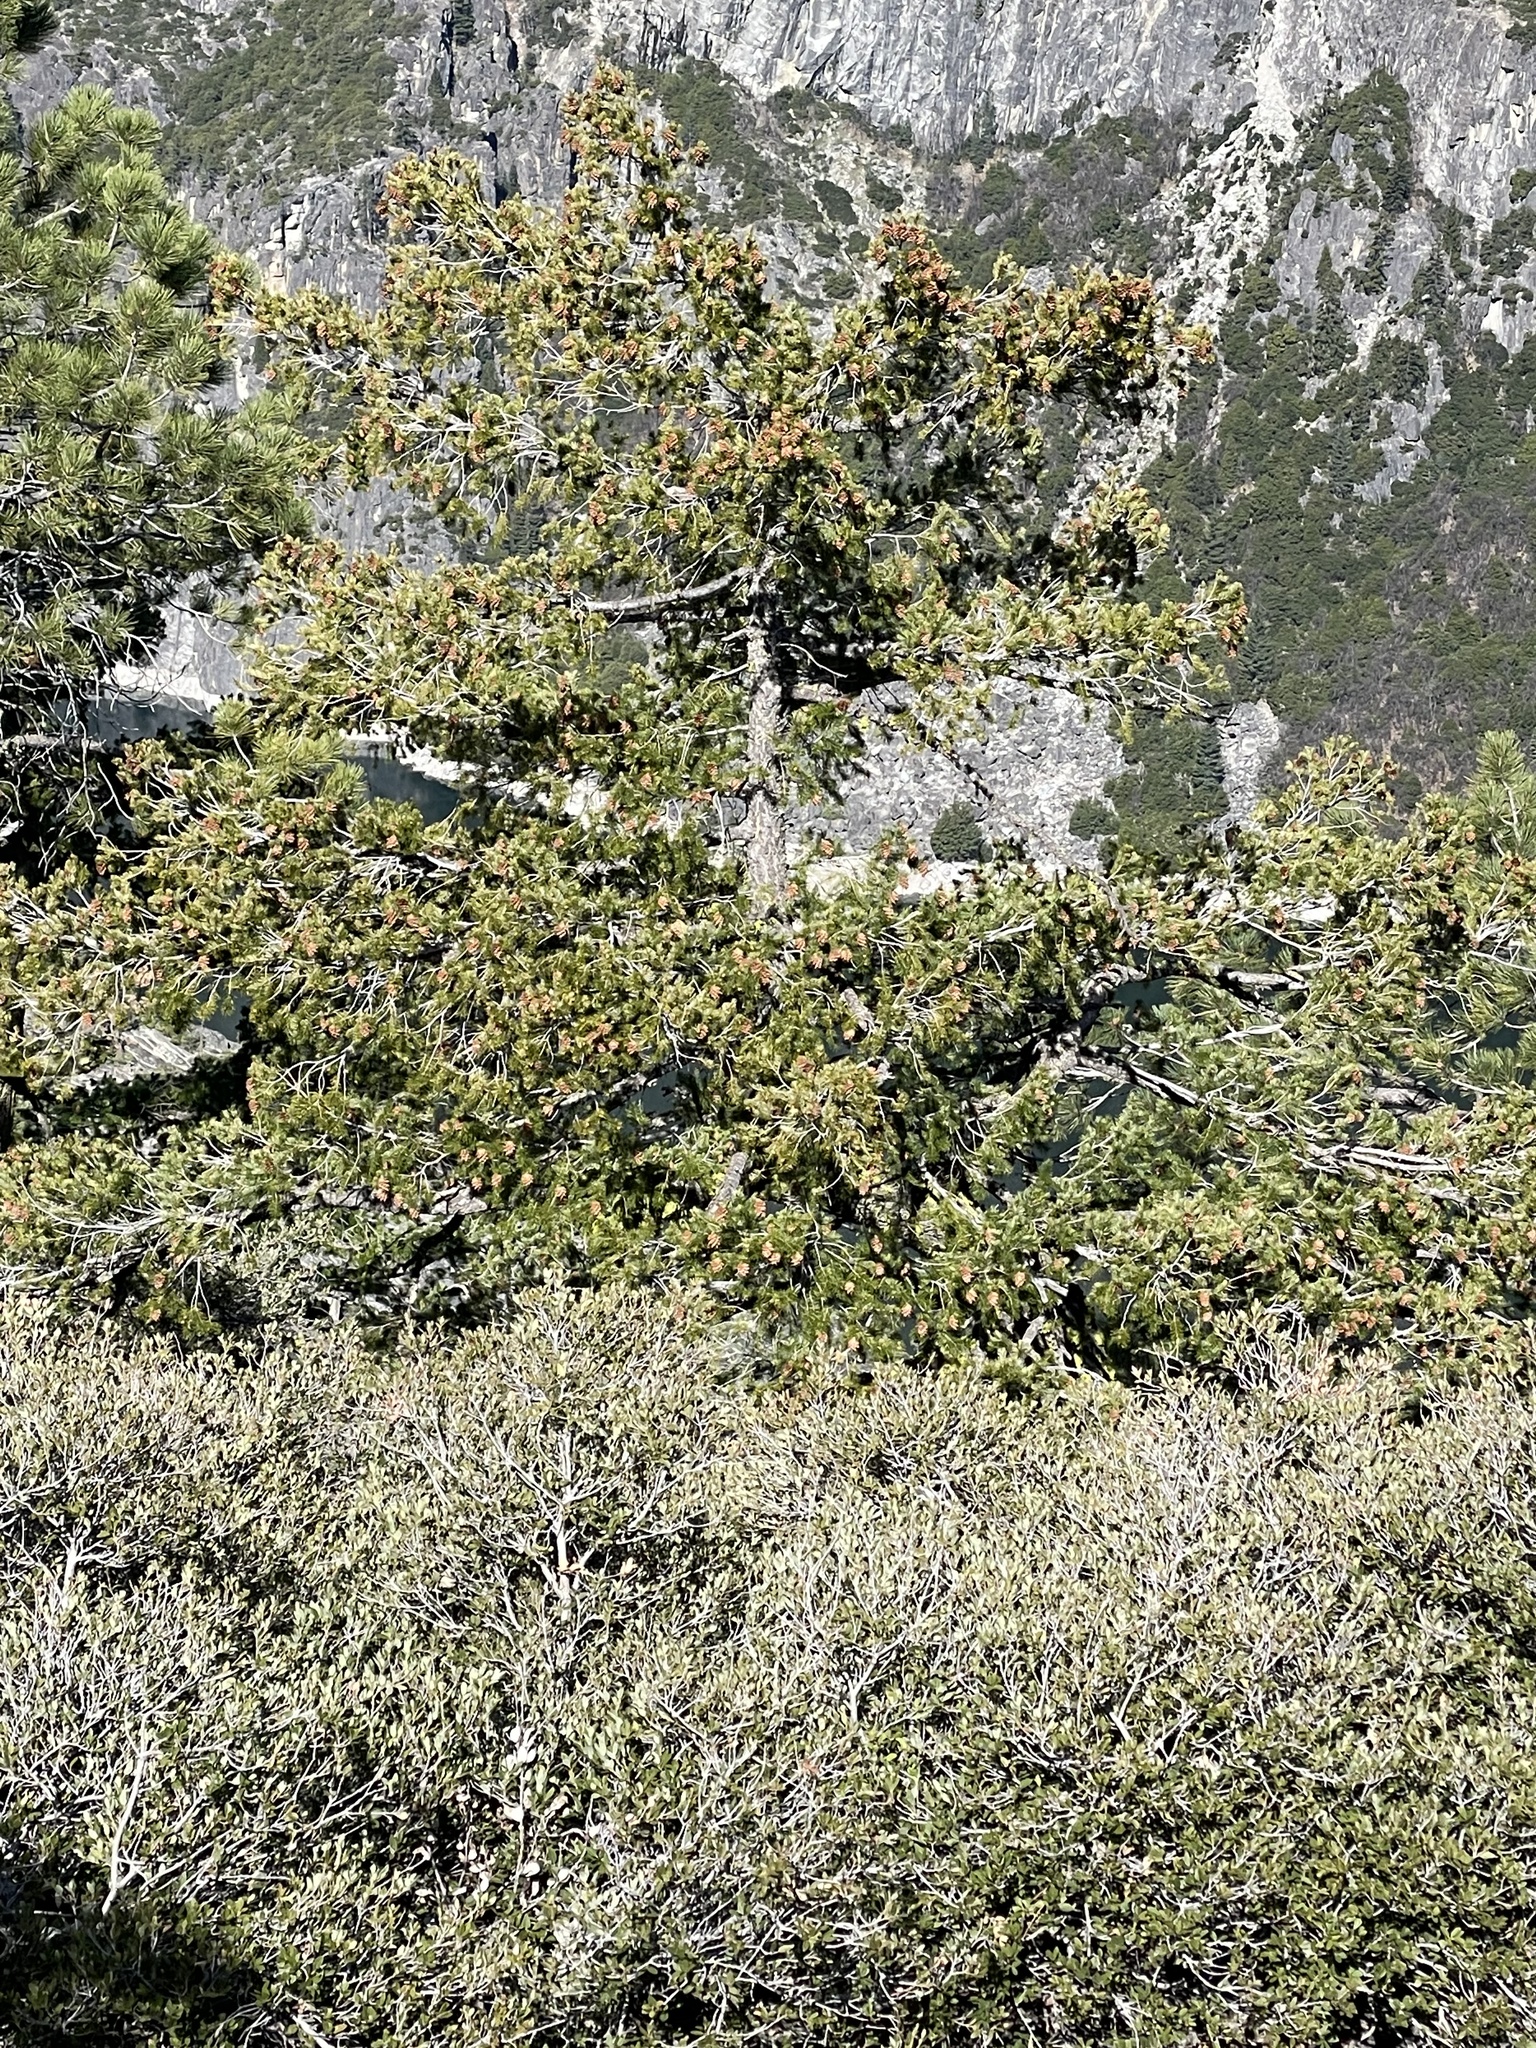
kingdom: Plantae
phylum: Tracheophyta
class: Pinopsida
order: Pinales
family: Pinaceae
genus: Pseudotsuga
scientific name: Pseudotsuga menziesii
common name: Douglas fir
